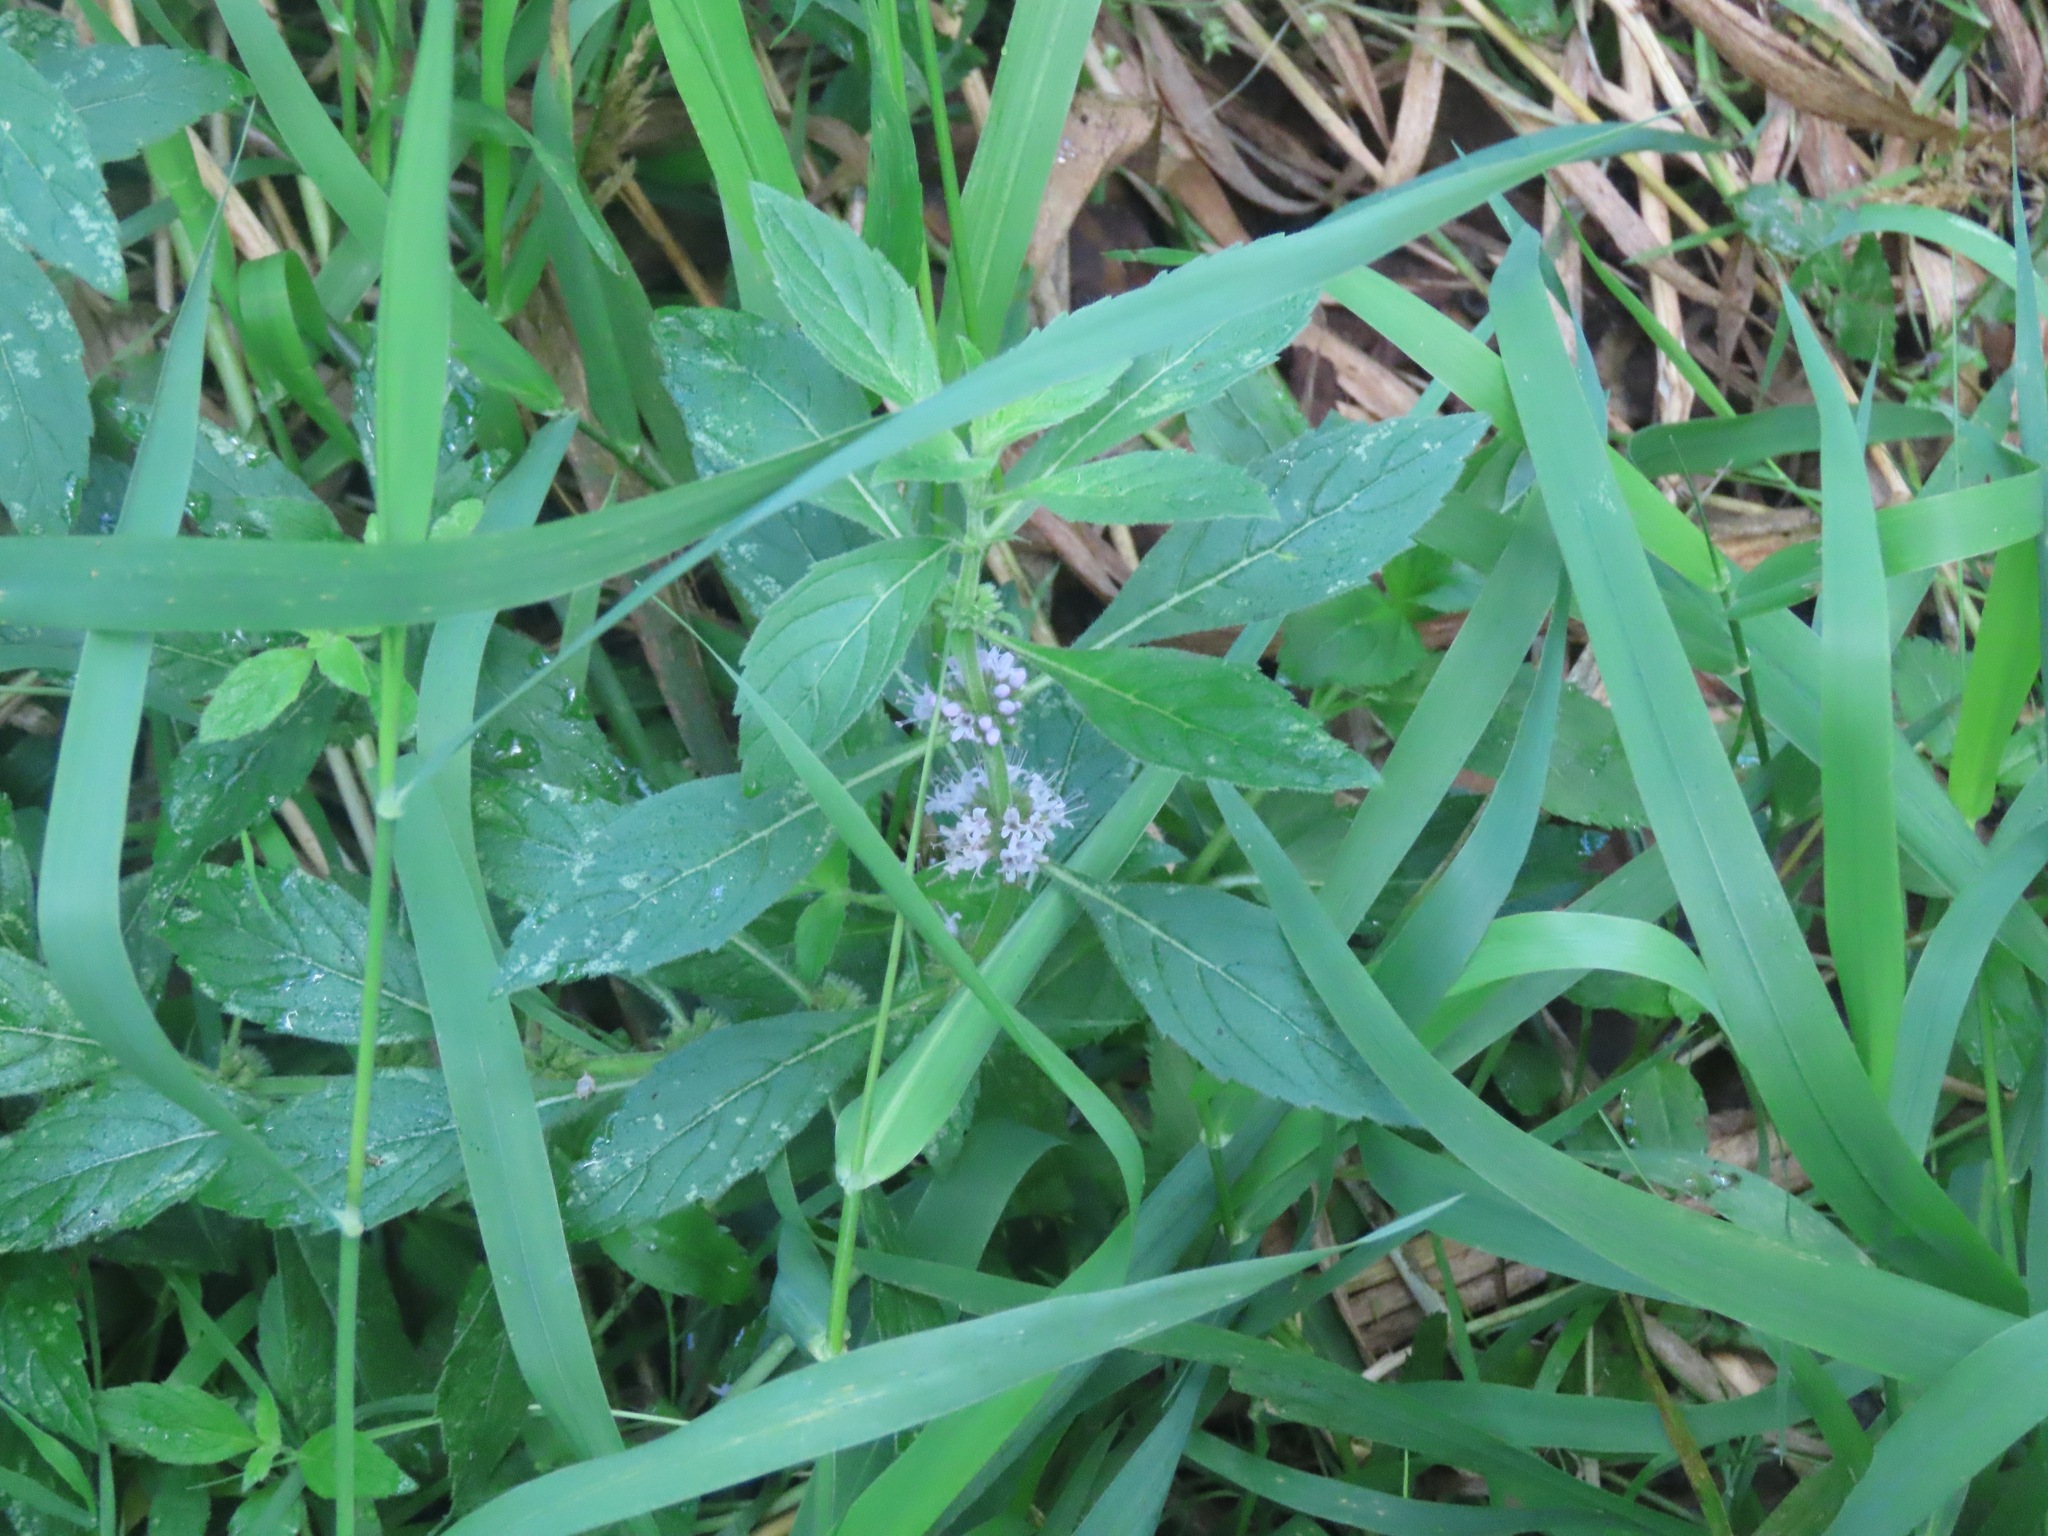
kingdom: Plantae
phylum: Tracheophyta
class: Magnoliopsida
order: Lamiales
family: Lamiaceae
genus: Mentha
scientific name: Mentha canadensis
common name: American corn mint
